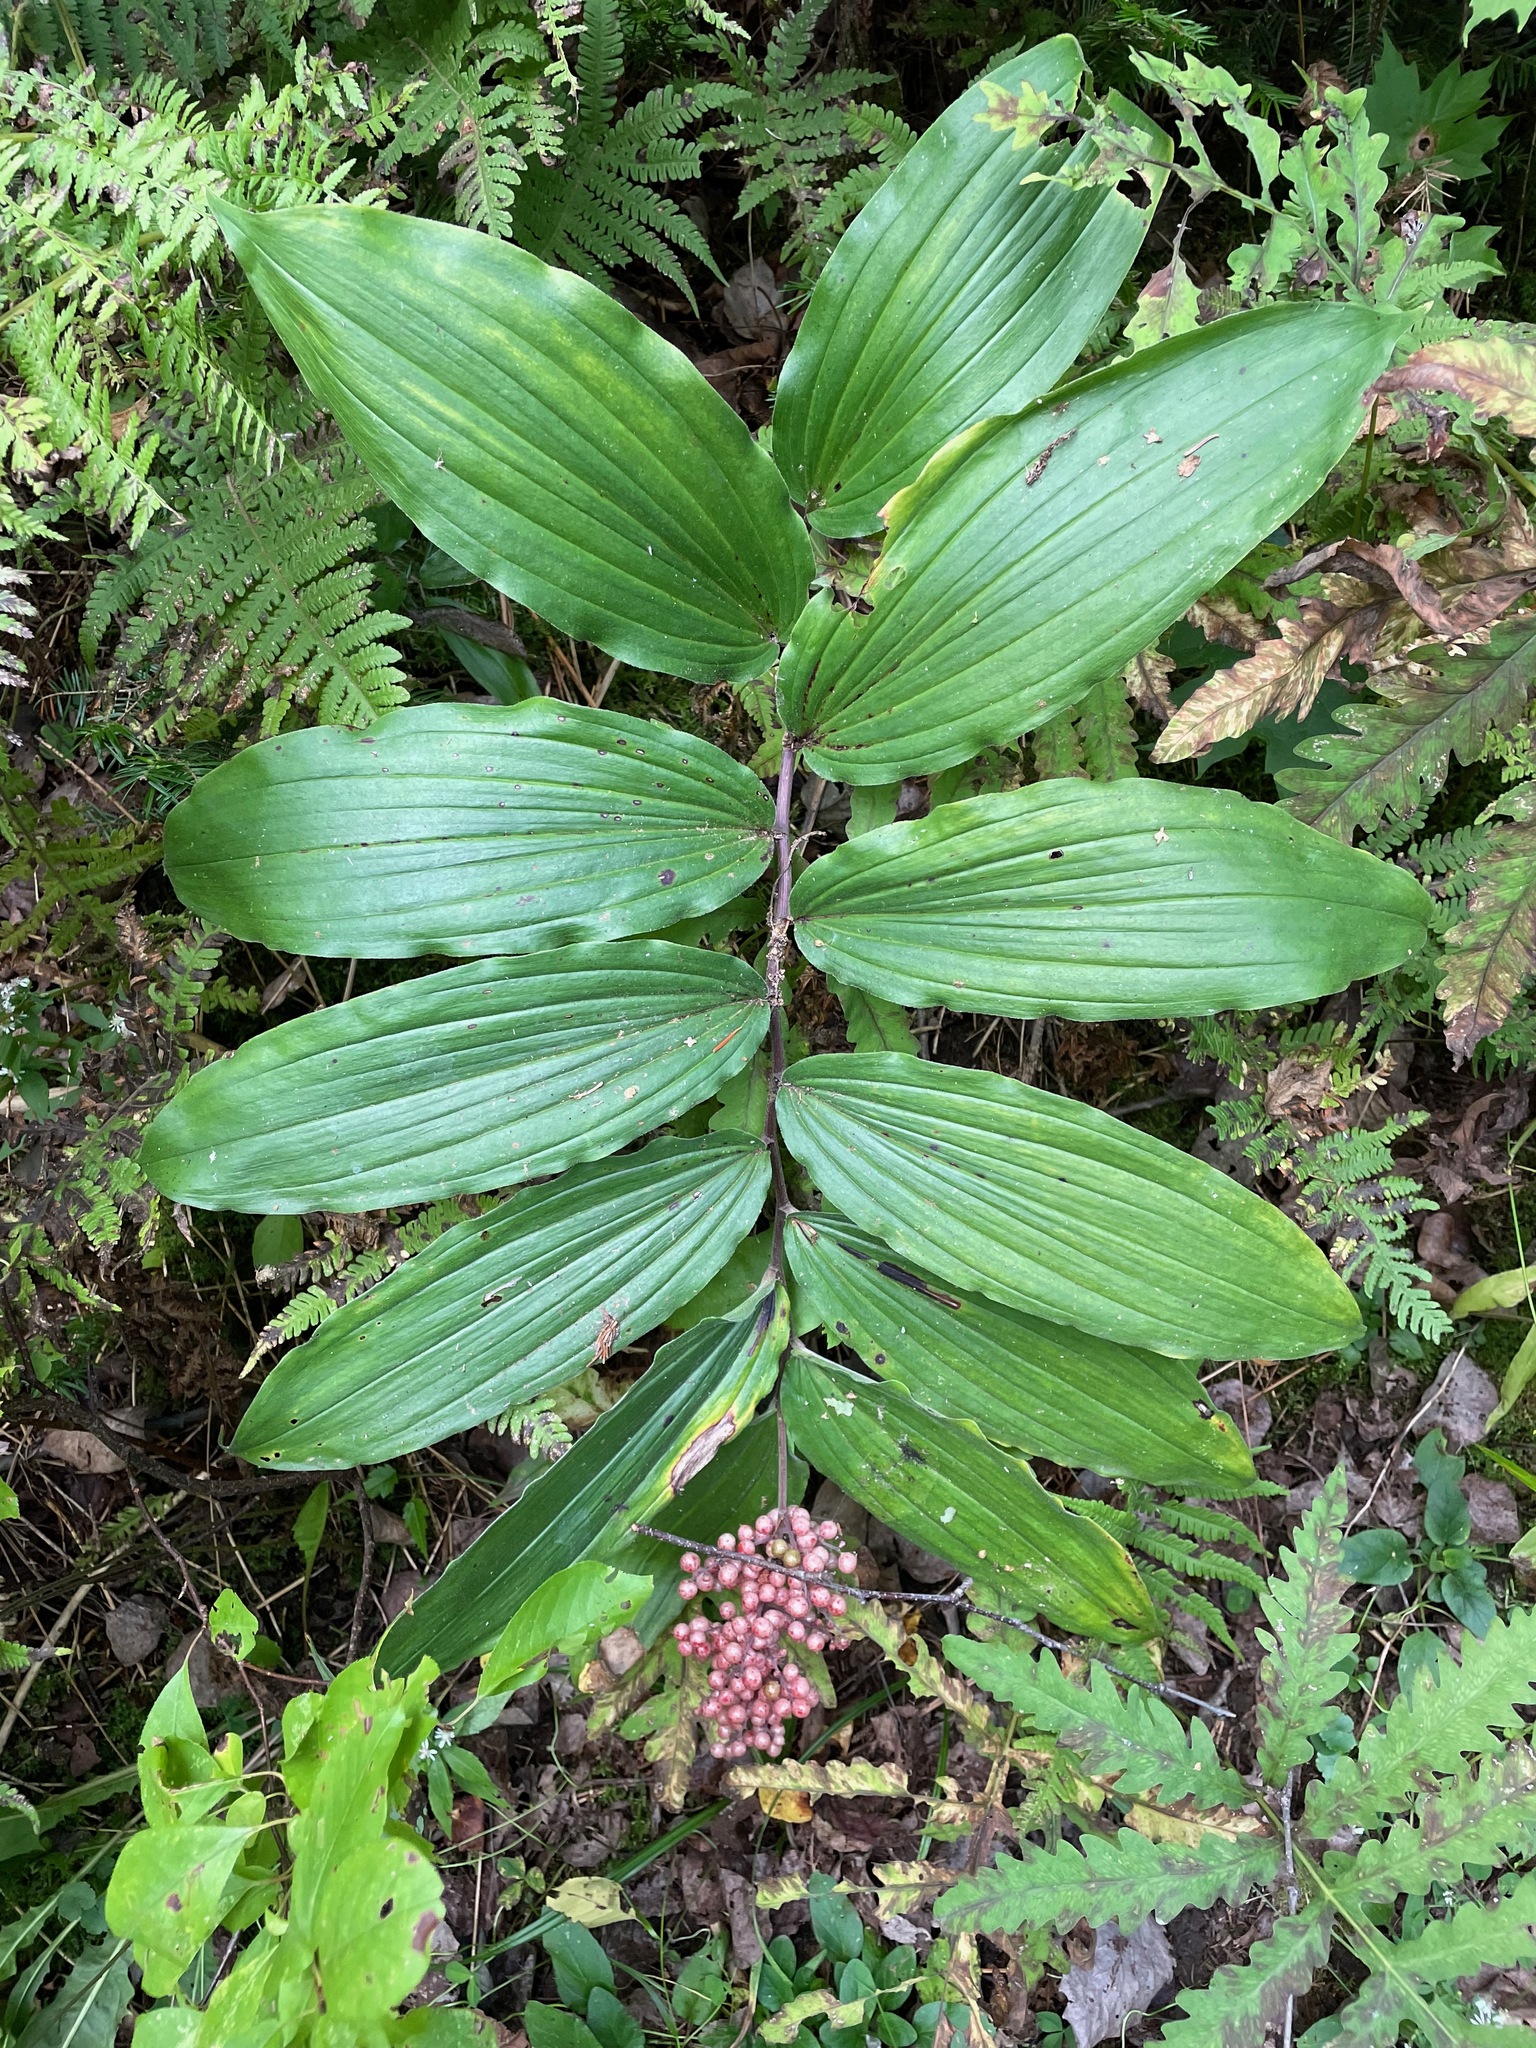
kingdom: Plantae
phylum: Tracheophyta
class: Liliopsida
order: Asparagales
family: Asparagaceae
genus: Maianthemum
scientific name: Maianthemum racemosum
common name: False spikenard
